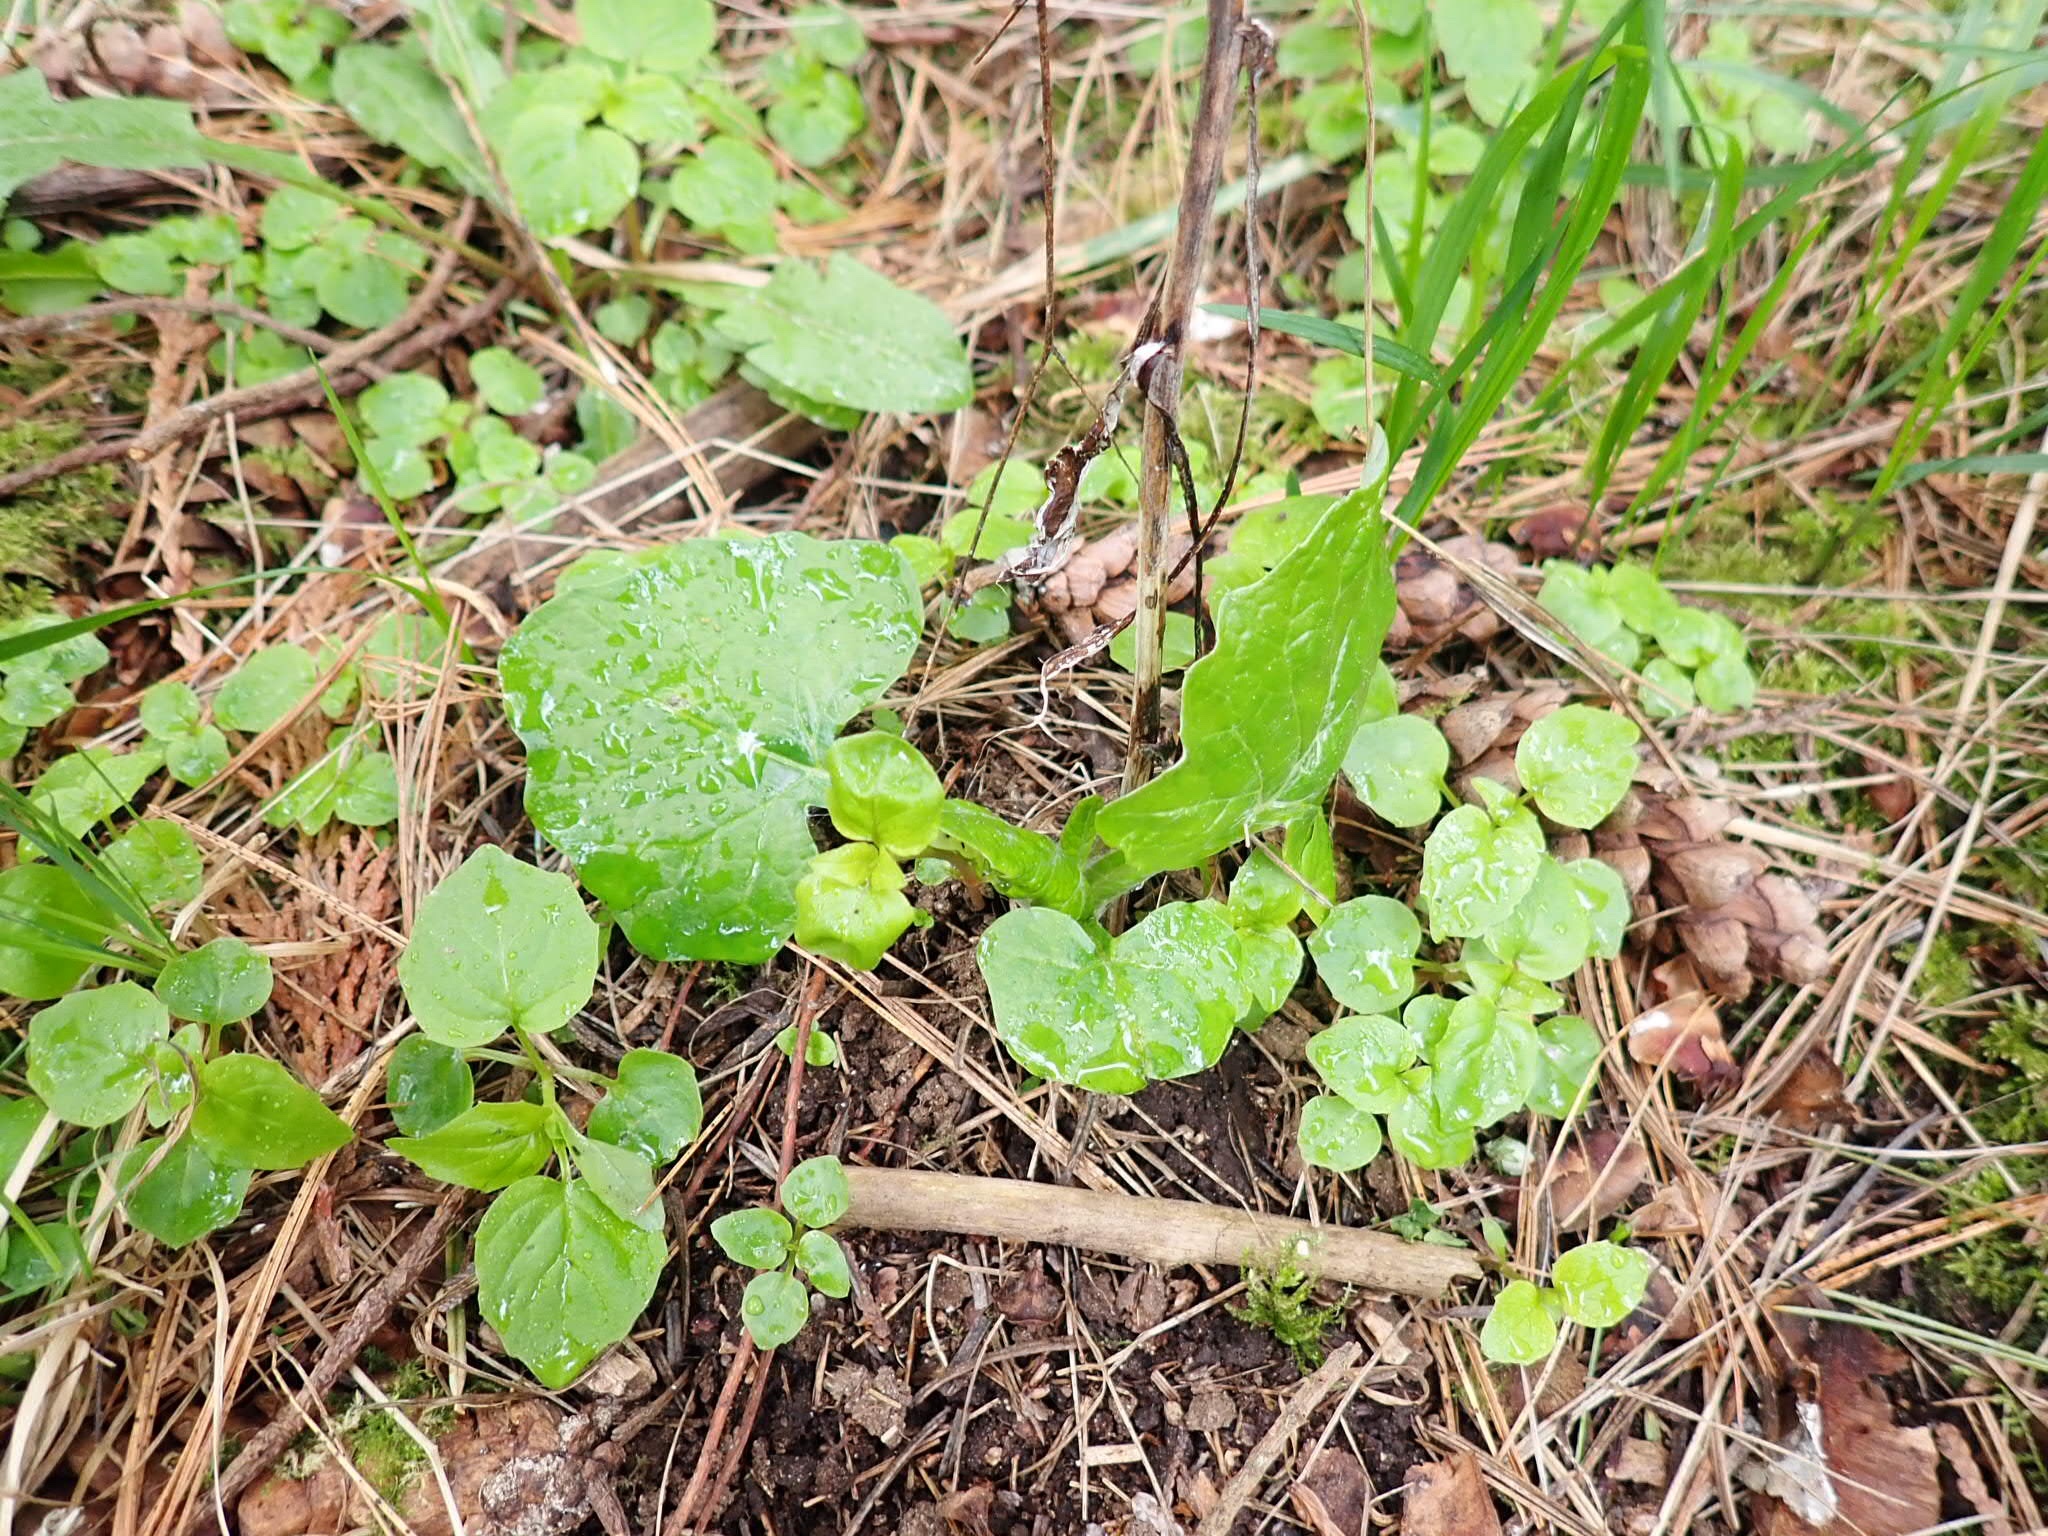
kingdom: Plantae
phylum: Tracheophyta
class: Magnoliopsida
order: Asterales
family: Asteraceae
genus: Adenocaulon
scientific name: Adenocaulon bicolor
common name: Trailplant
